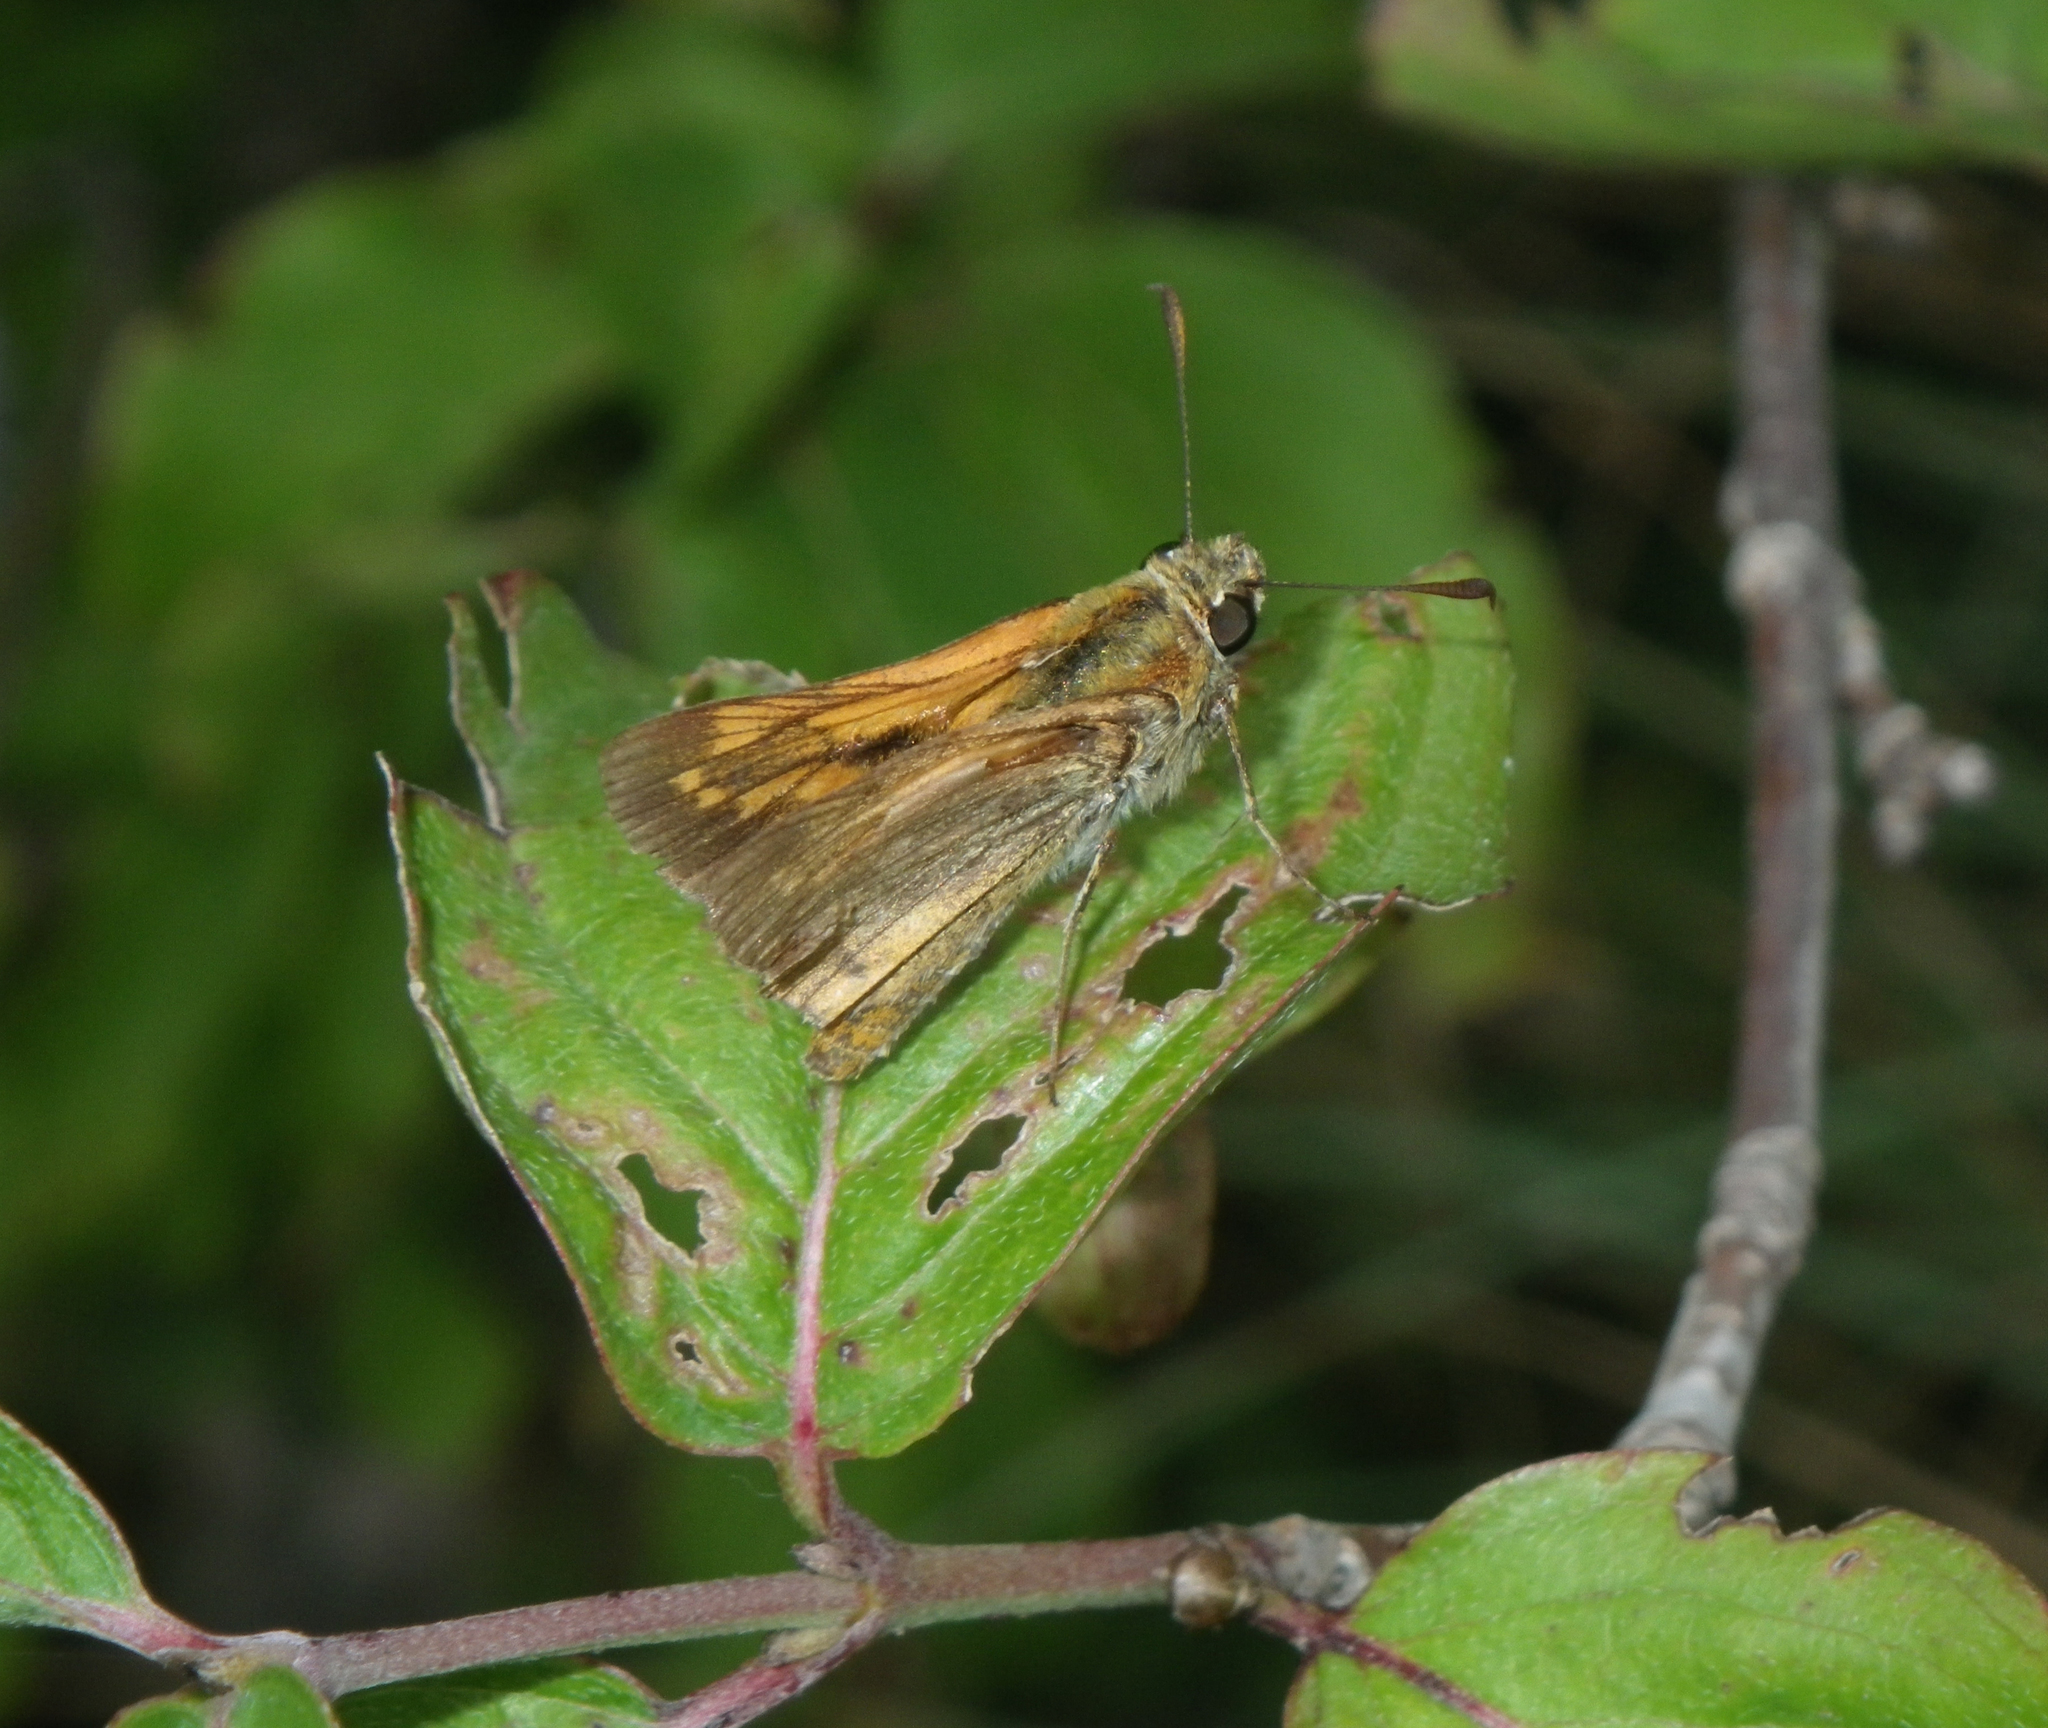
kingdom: Animalia
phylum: Arthropoda
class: Insecta
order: Lepidoptera
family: Hesperiidae
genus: Ochlodes
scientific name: Ochlodes venata
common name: Large skipper
